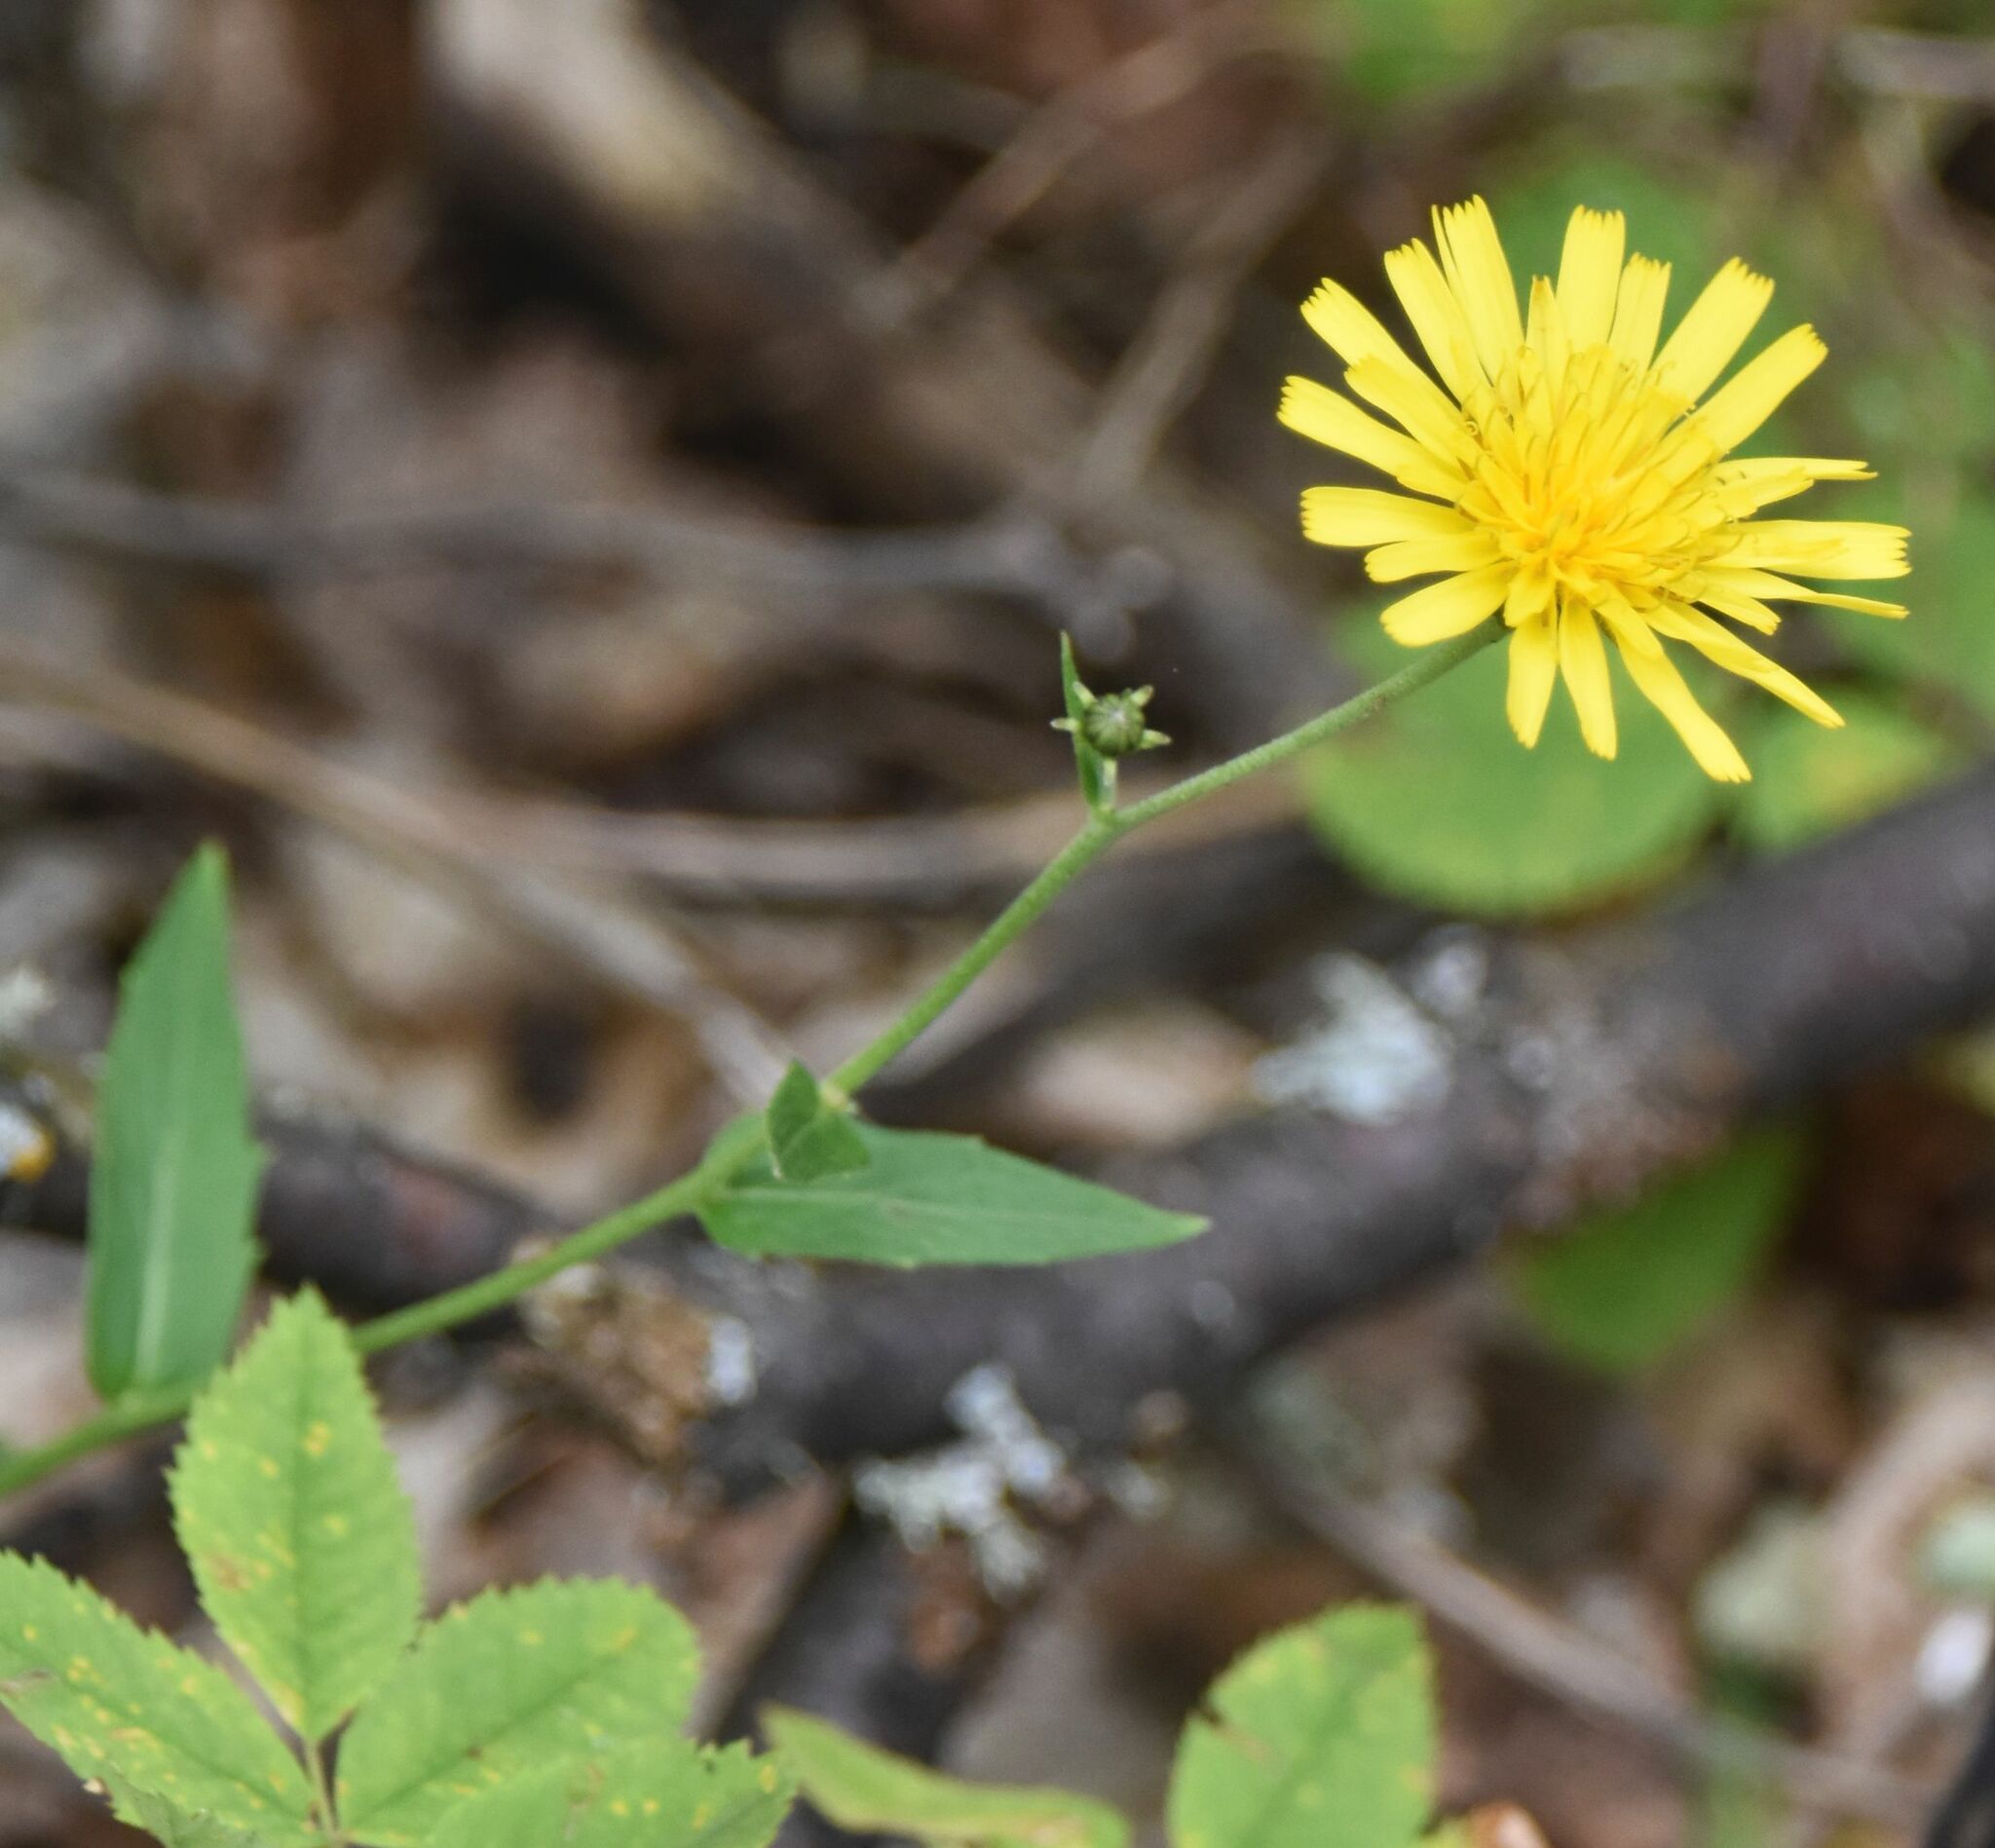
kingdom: Plantae
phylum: Tracheophyta
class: Magnoliopsida
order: Asterales
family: Asteraceae
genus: Hieracium
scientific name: Hieracium umbellatum
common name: Northern hawkweed
